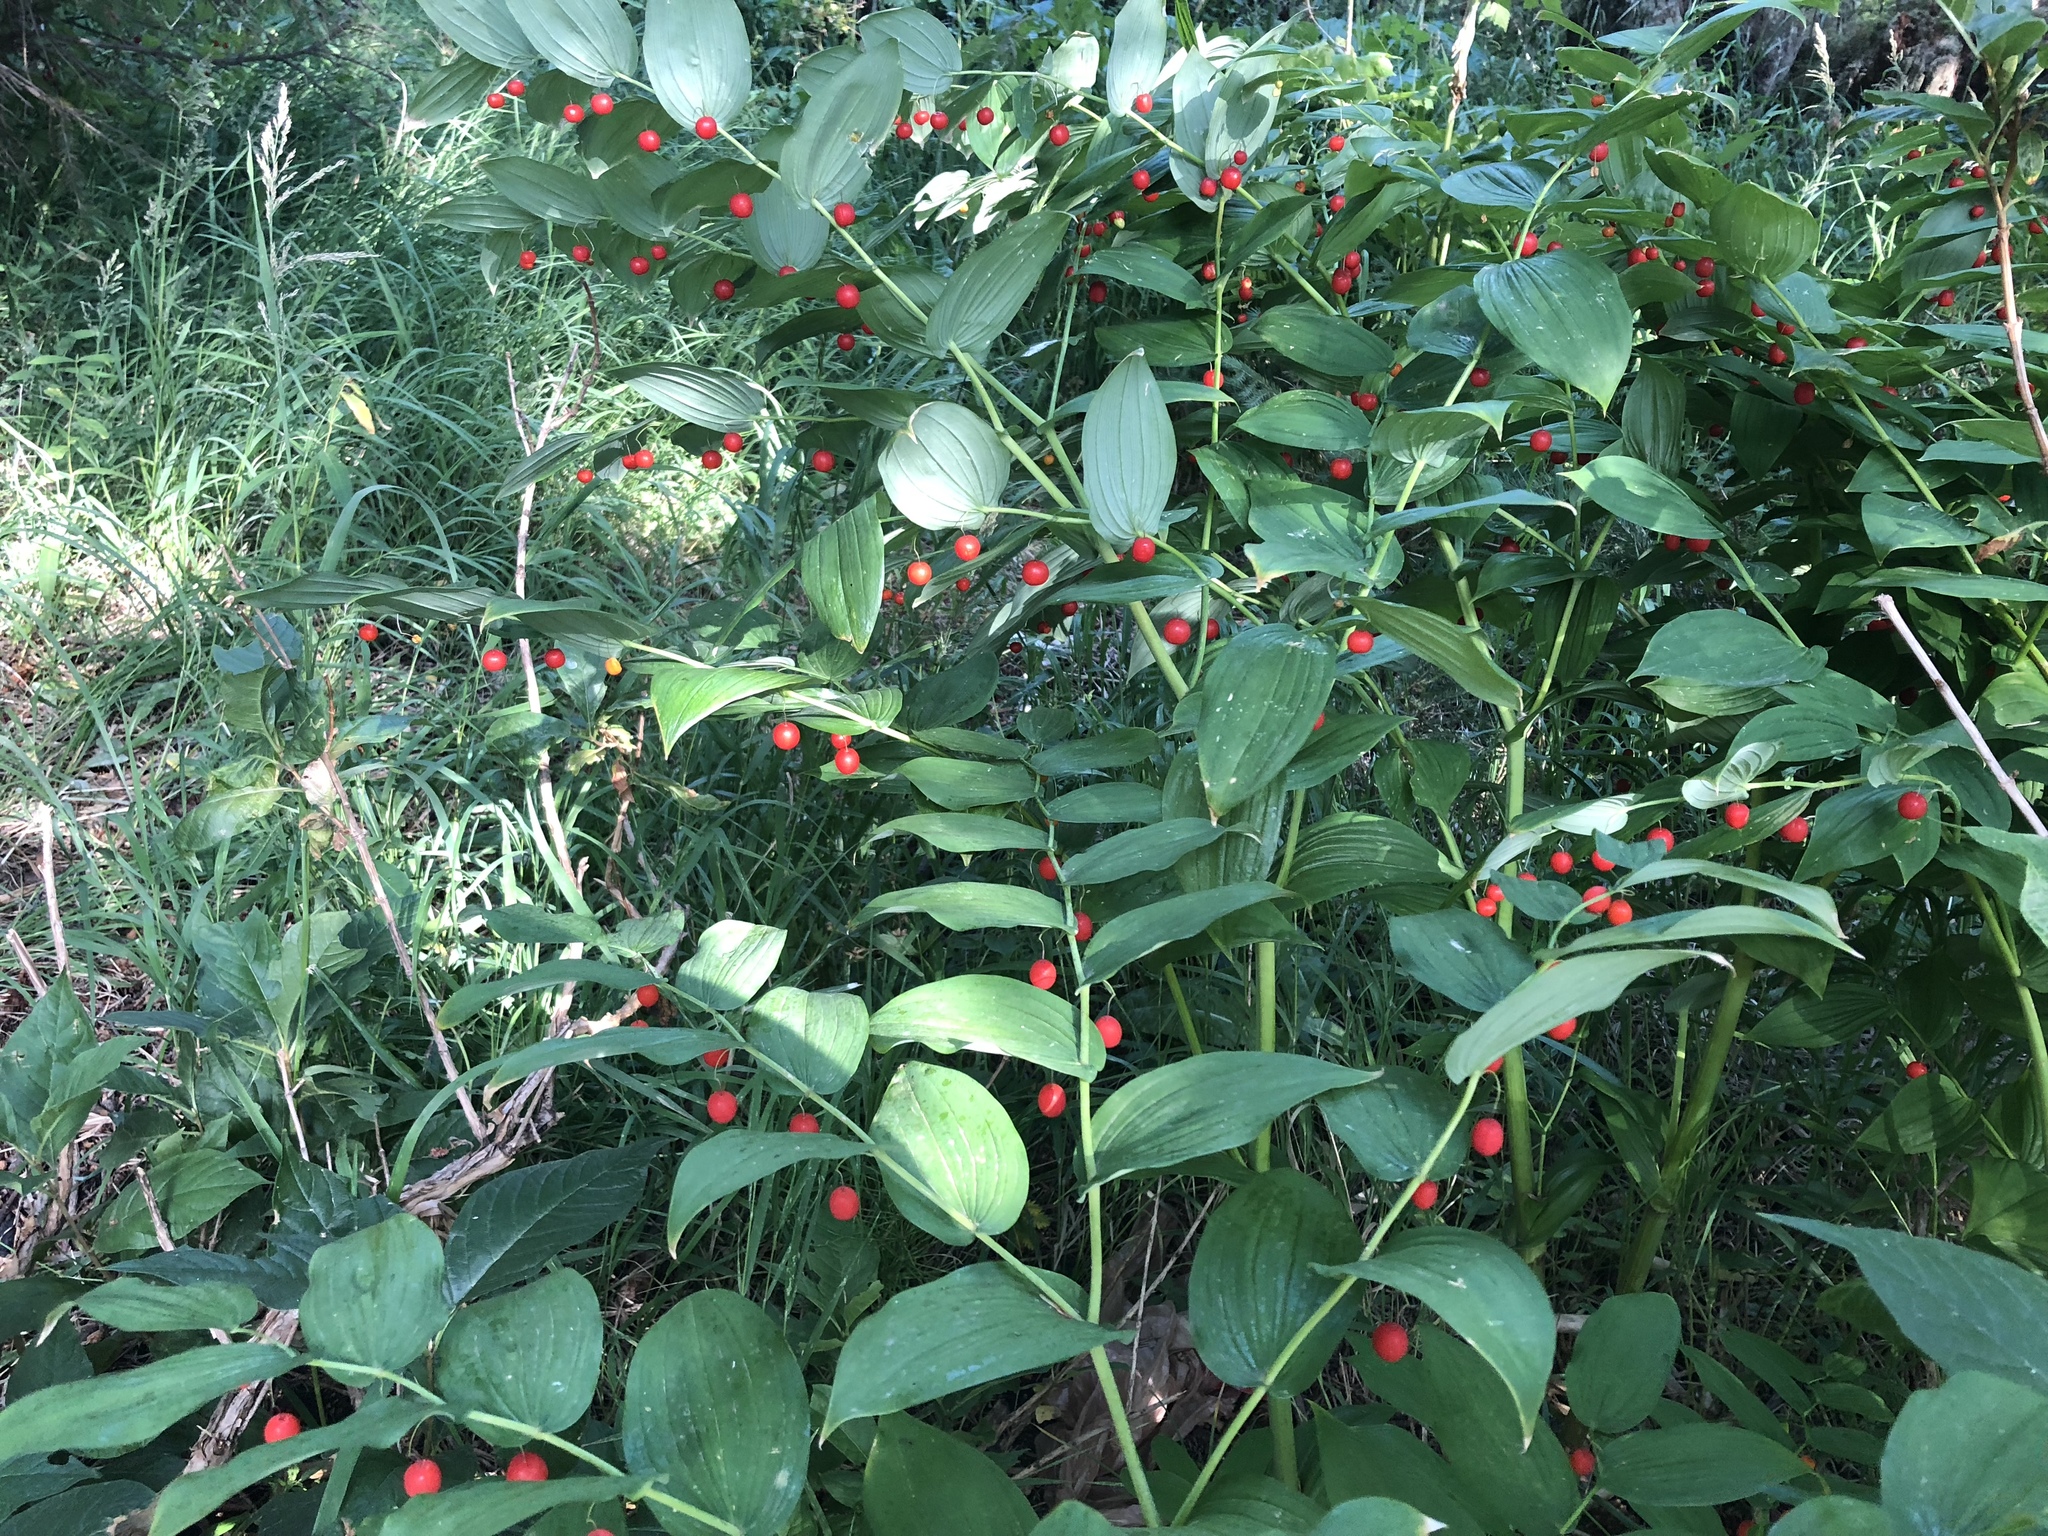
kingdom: Plantae
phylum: Tracheophyta
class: Liliopsida
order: Liliales
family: Liliaceae
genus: Streptopus
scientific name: Streptopus amplexifolius
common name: Clasp twisted stalk
